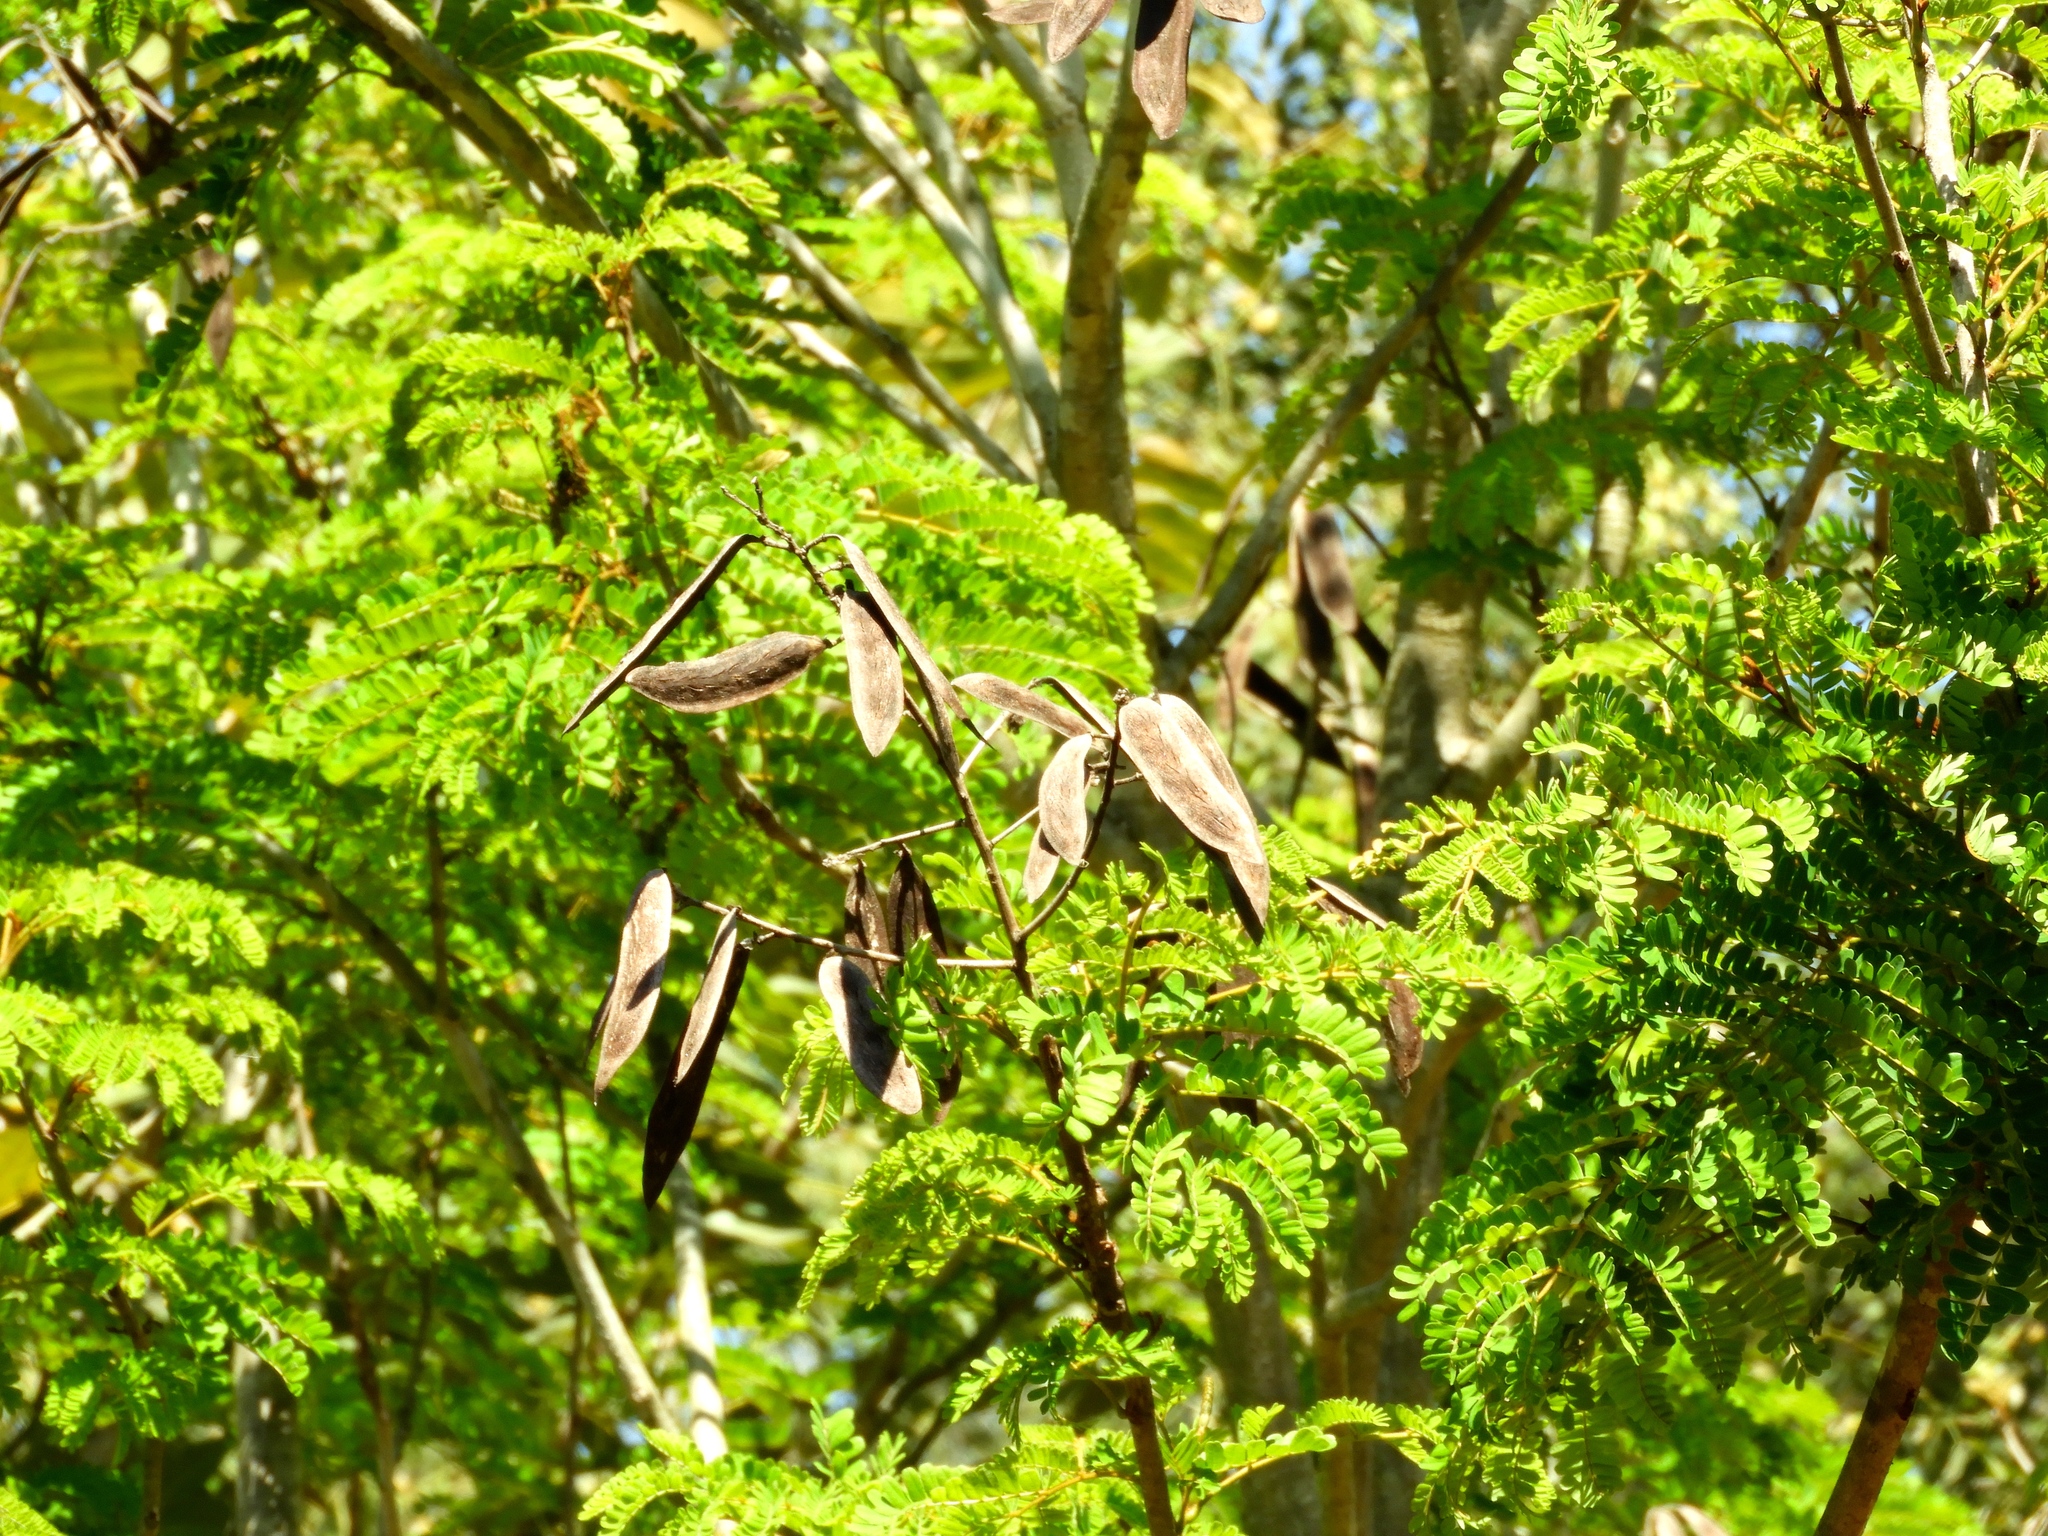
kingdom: Plantae
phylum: Tracheophyta
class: Magnoliopsida
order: Fabales
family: Fabaceae
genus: Coulteria
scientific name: Coulteria platyloba
